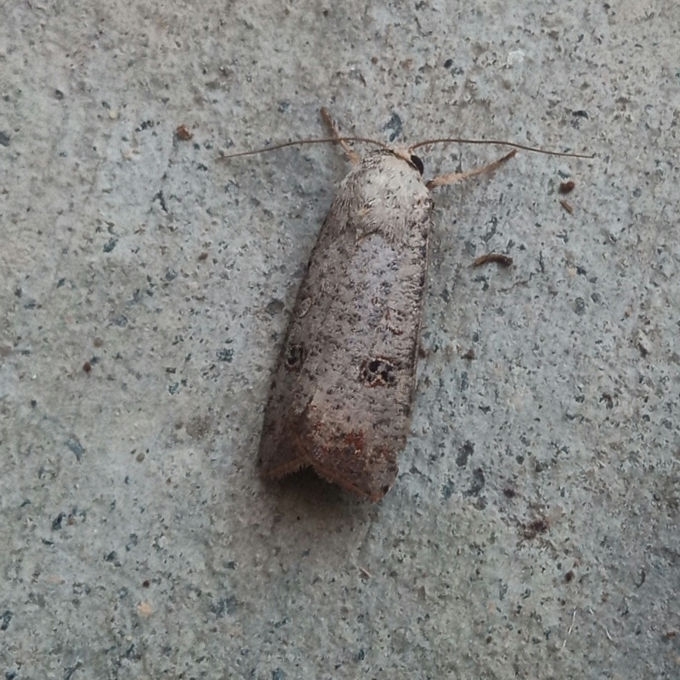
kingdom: Animalia
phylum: Arthropoda
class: Insecta
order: Lepidoptera
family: Noctuidae
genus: Anicla
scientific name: Anicla infecta
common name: Green cutworm
